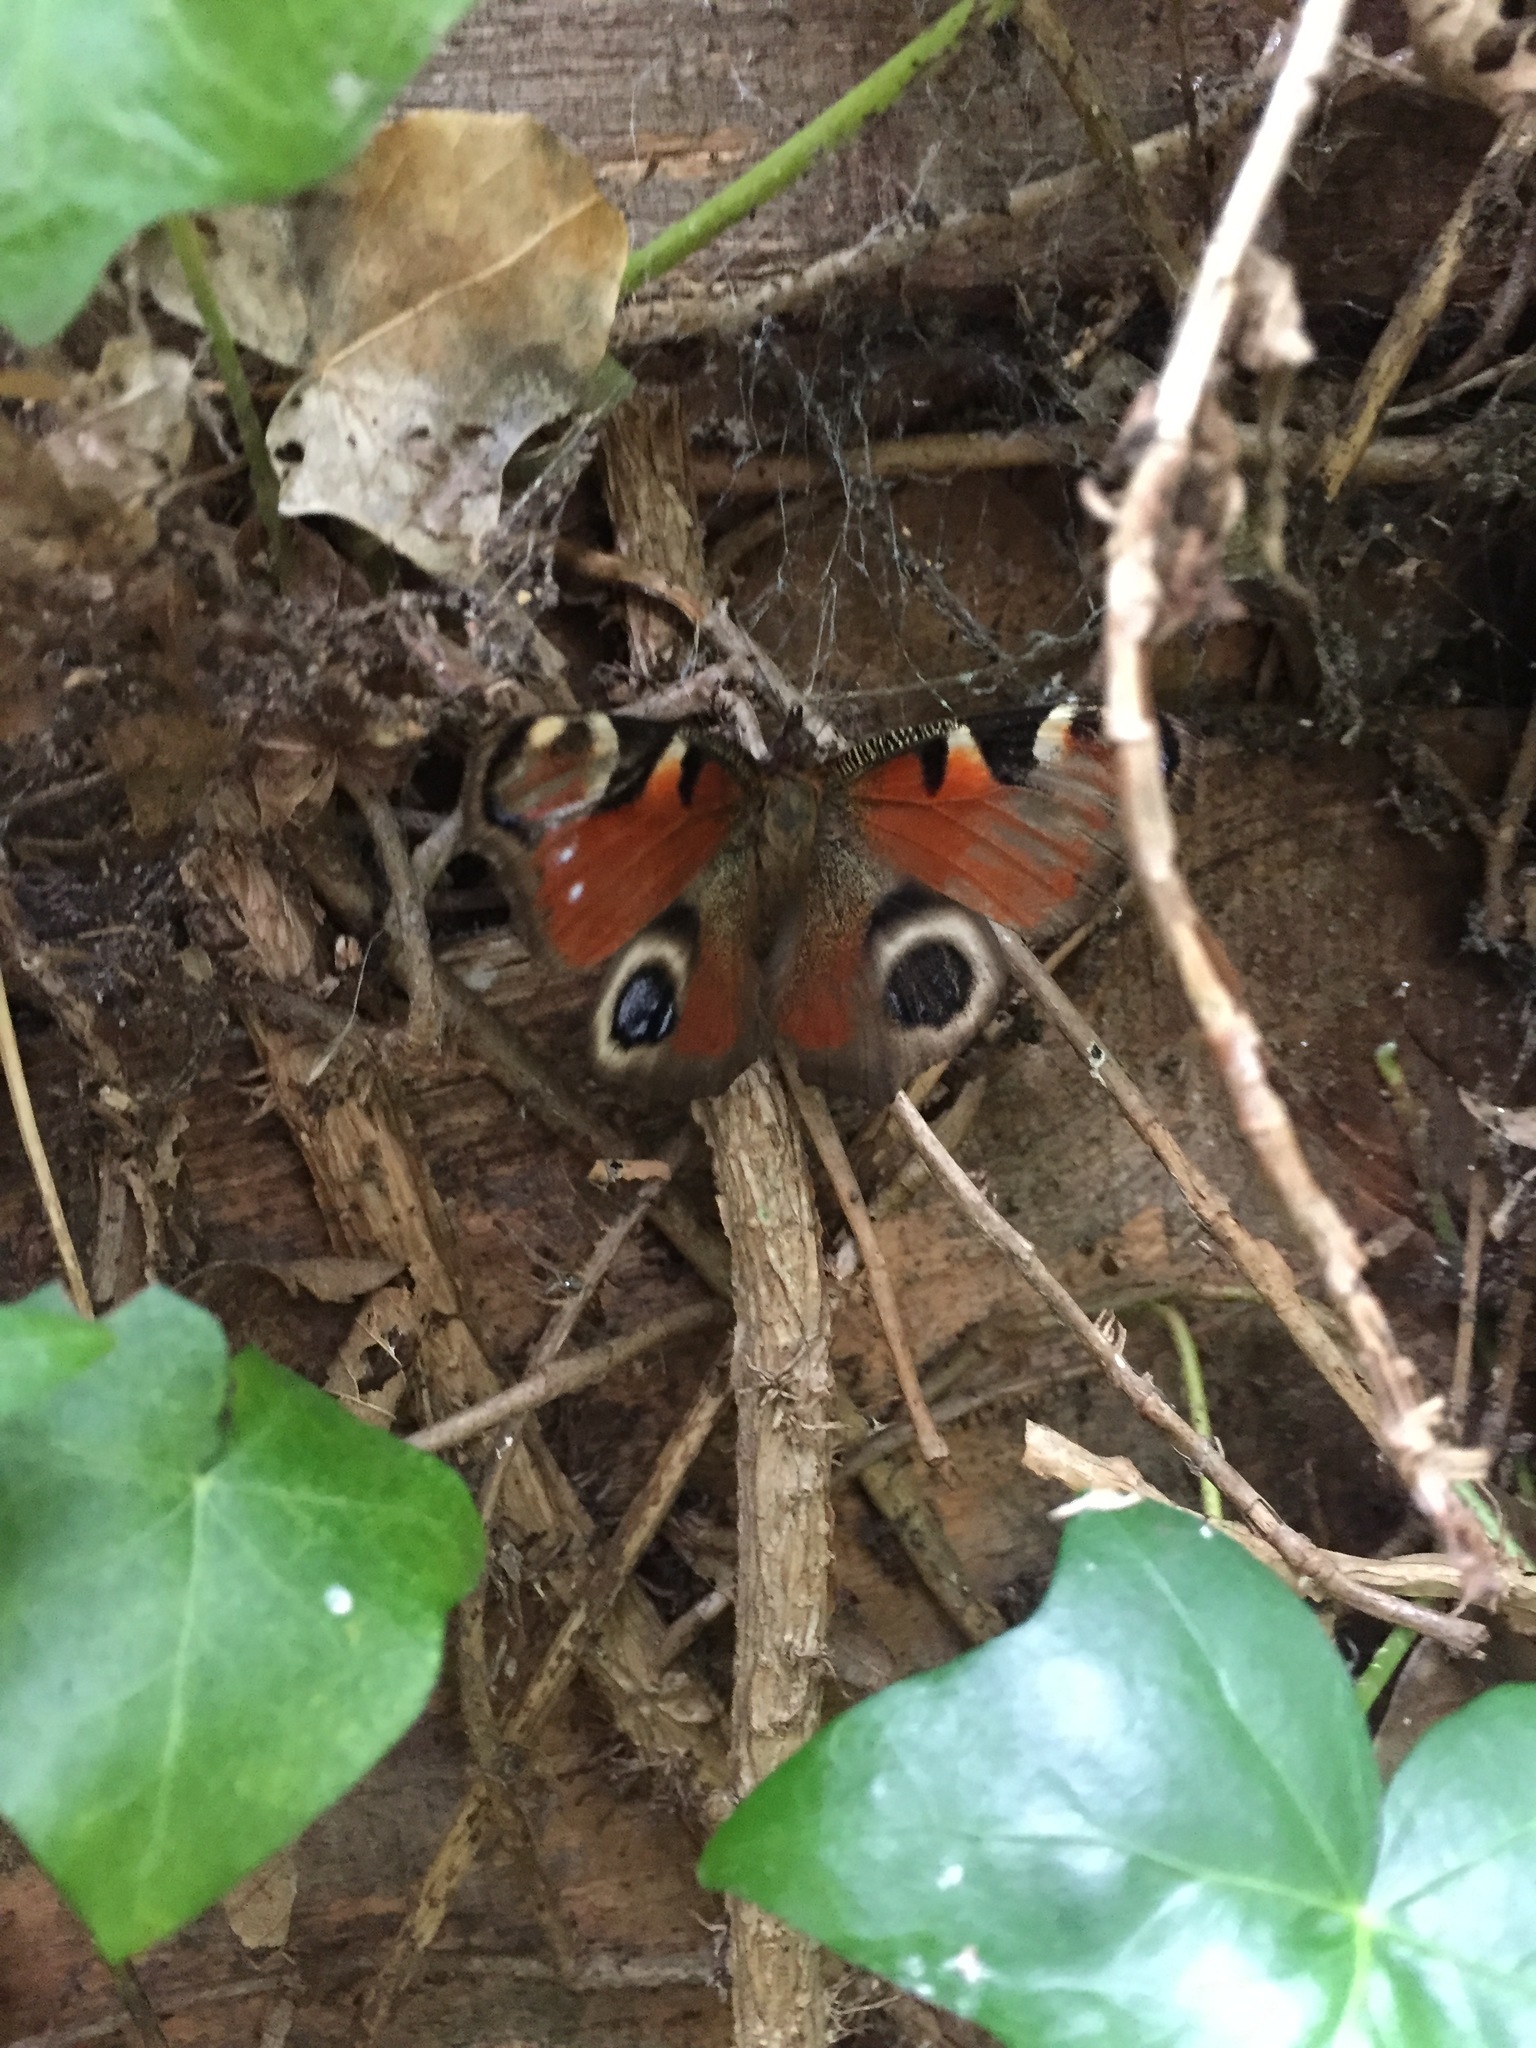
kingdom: Animalia
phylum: Arthropoda
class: Insecta
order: Lepidoptera
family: Nymphalidae
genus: Aglais
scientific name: Aglais io
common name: Peacock
